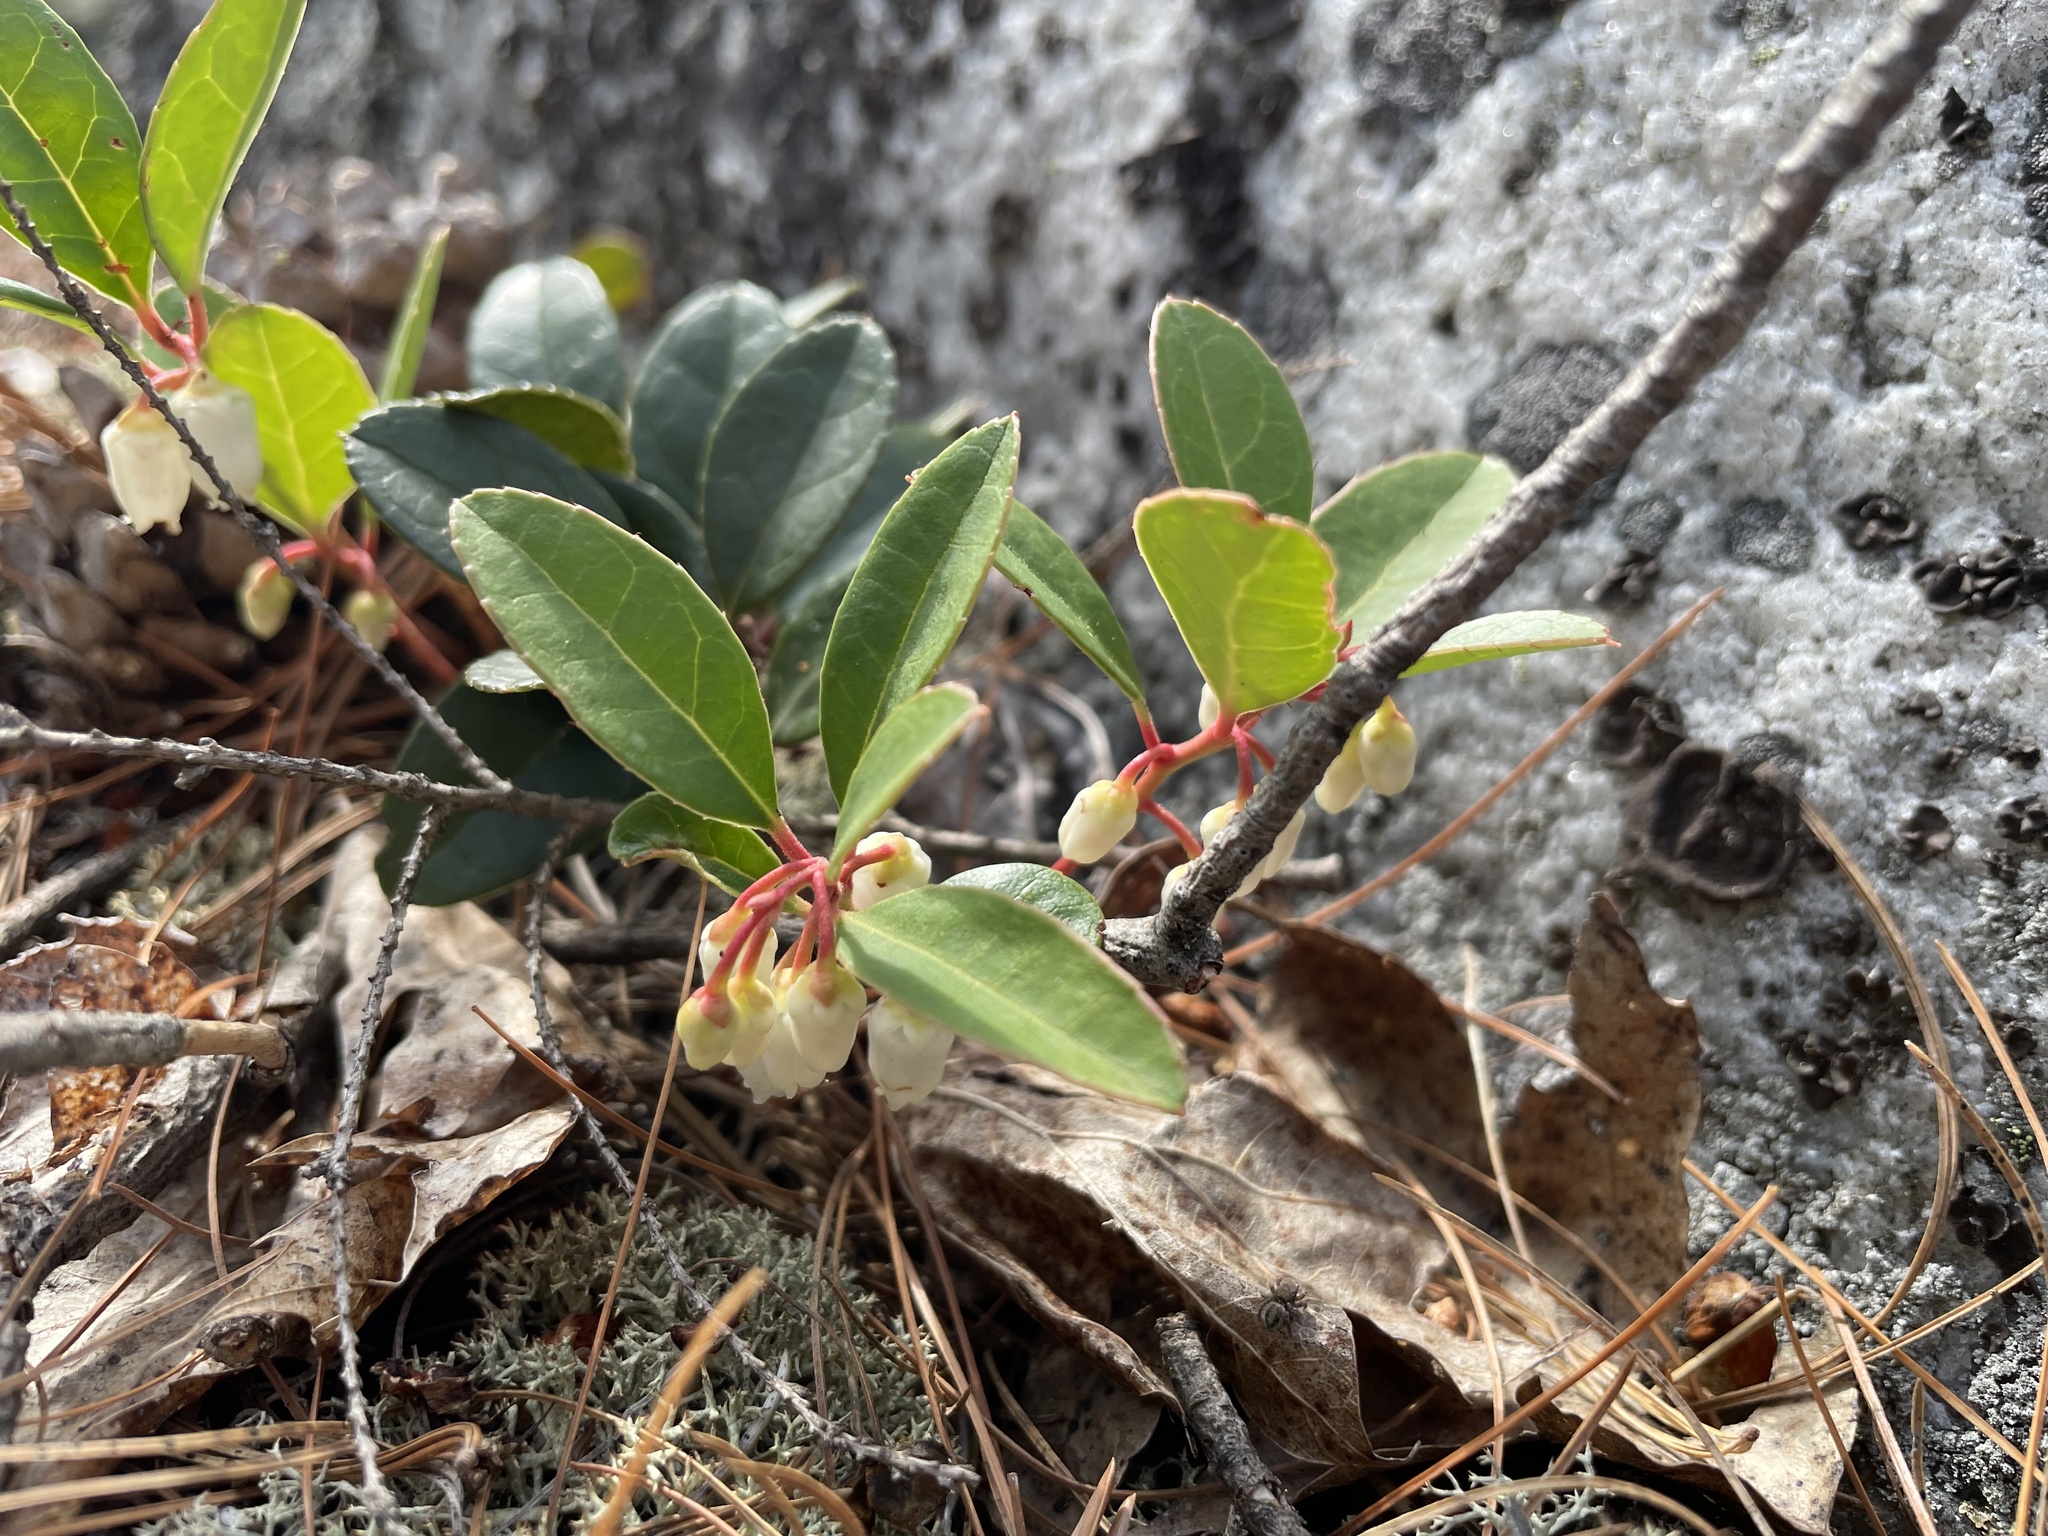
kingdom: Plantae
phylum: Tracheophyta
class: Magnoliopsida
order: Ericales
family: Ericaceae
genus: Gaultheria
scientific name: Gaultheria procumbens
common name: Checkerberry
